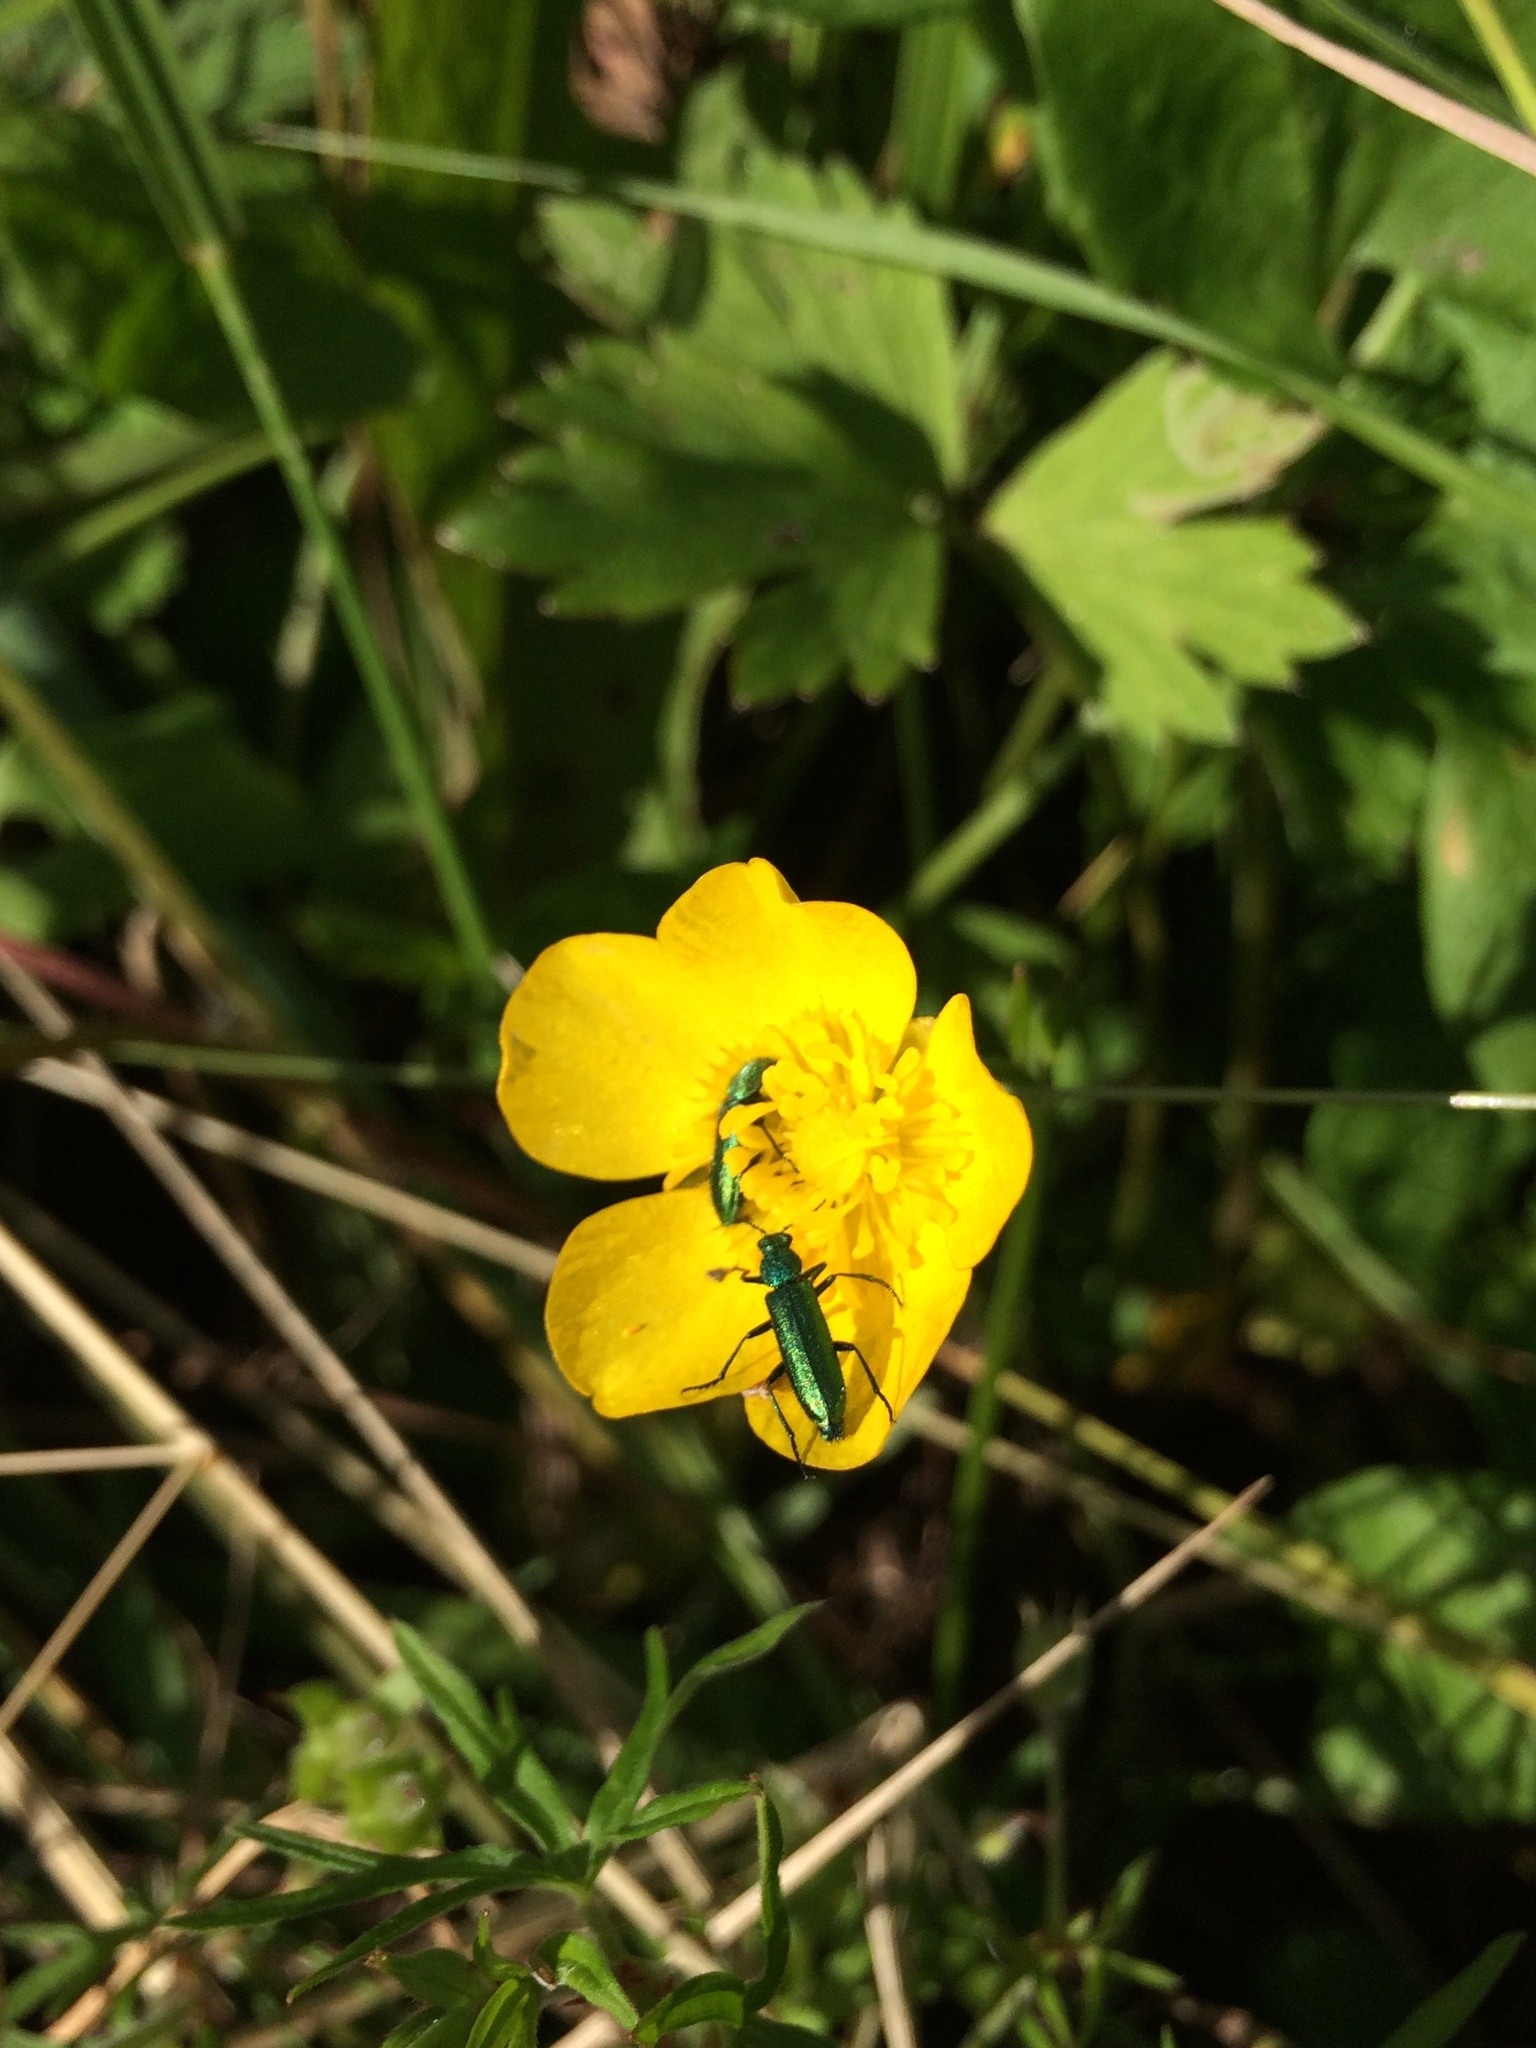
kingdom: Animalia
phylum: Arthropoda
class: Insecta
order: Coleoptera
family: Dasytidae
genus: Psilothrix
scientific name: Psilothrix viridicoerulea
